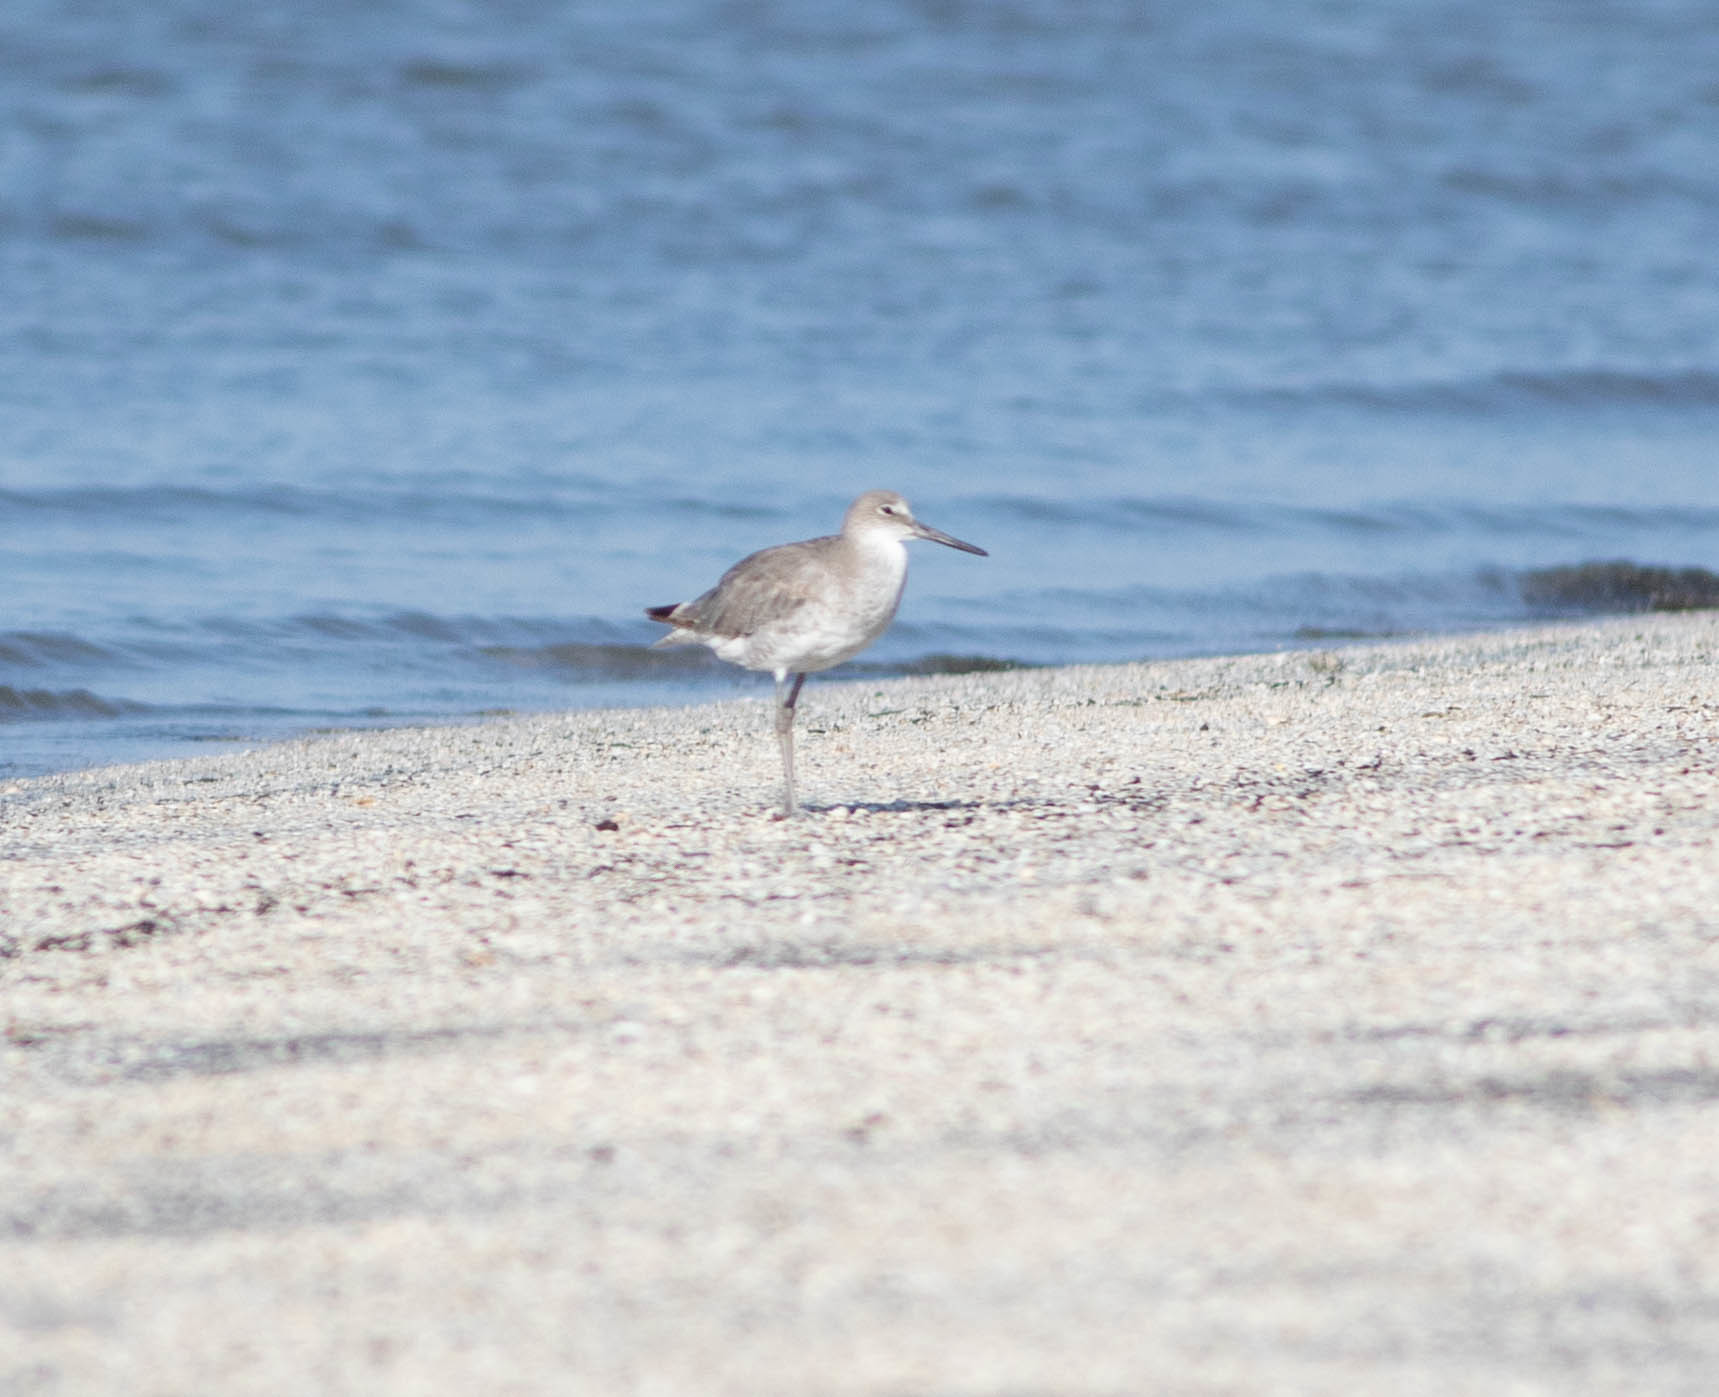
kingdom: Animalia
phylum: Chordata
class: Aves
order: Charadriiformes
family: Scolopacidae
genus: Tringa
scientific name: Tringa semipalmata
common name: Willet
